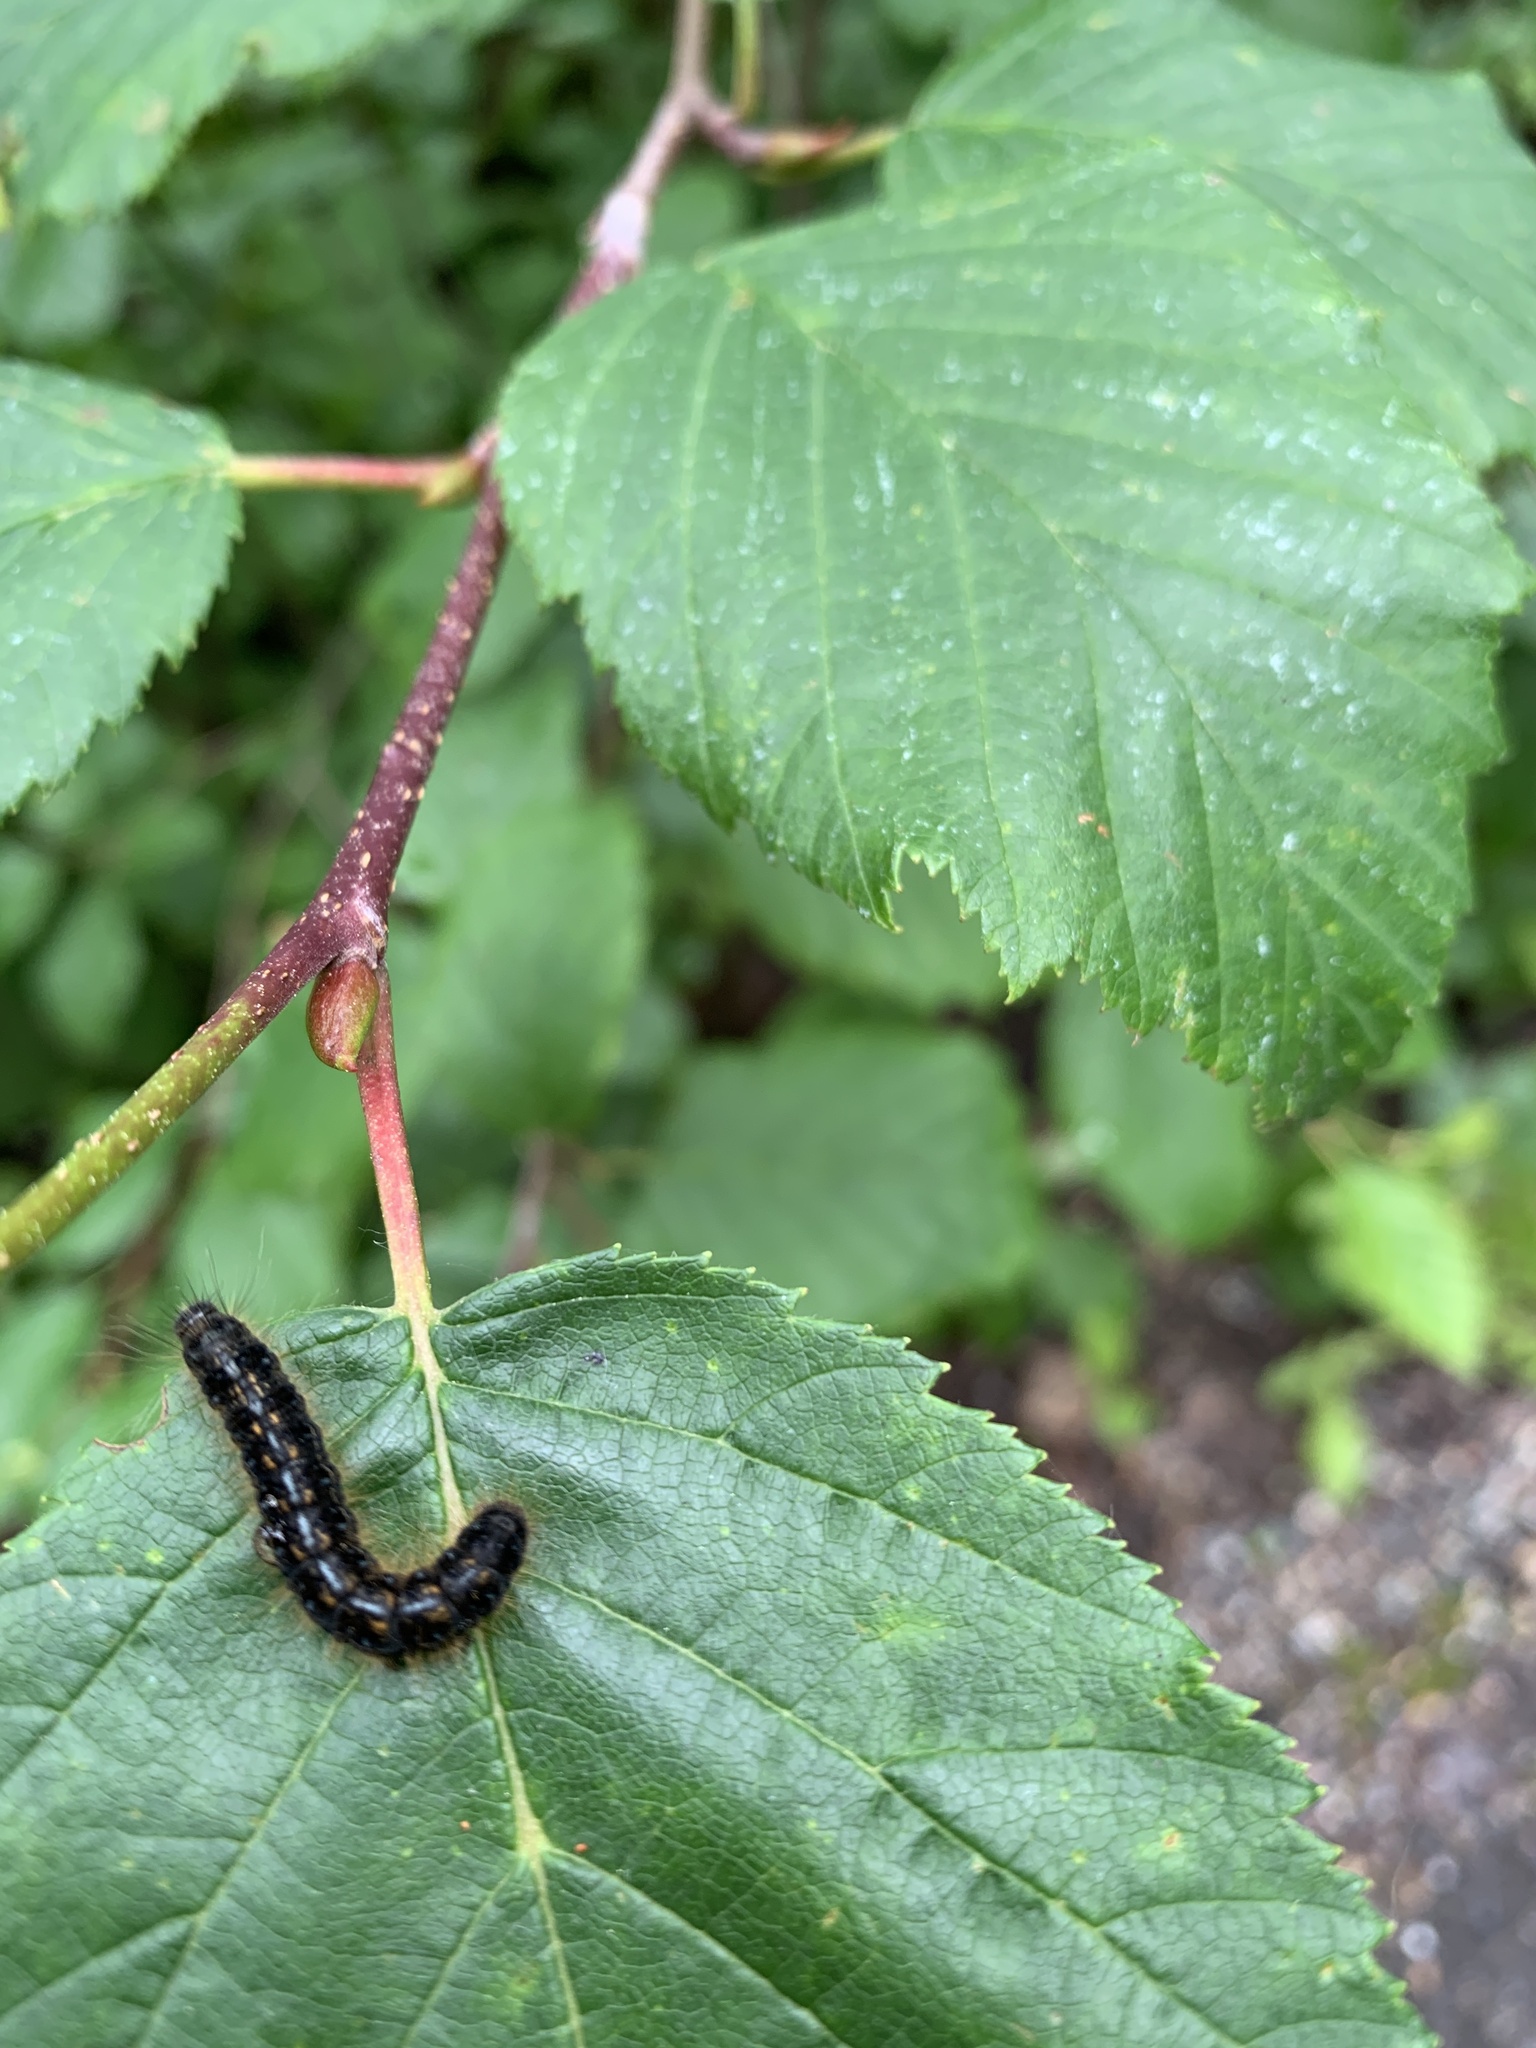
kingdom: Animalia
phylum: Arthropoda
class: Insecta
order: Lepidoptera
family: Lasiocampidae
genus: Malacosoma
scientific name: Malacosoma californica
